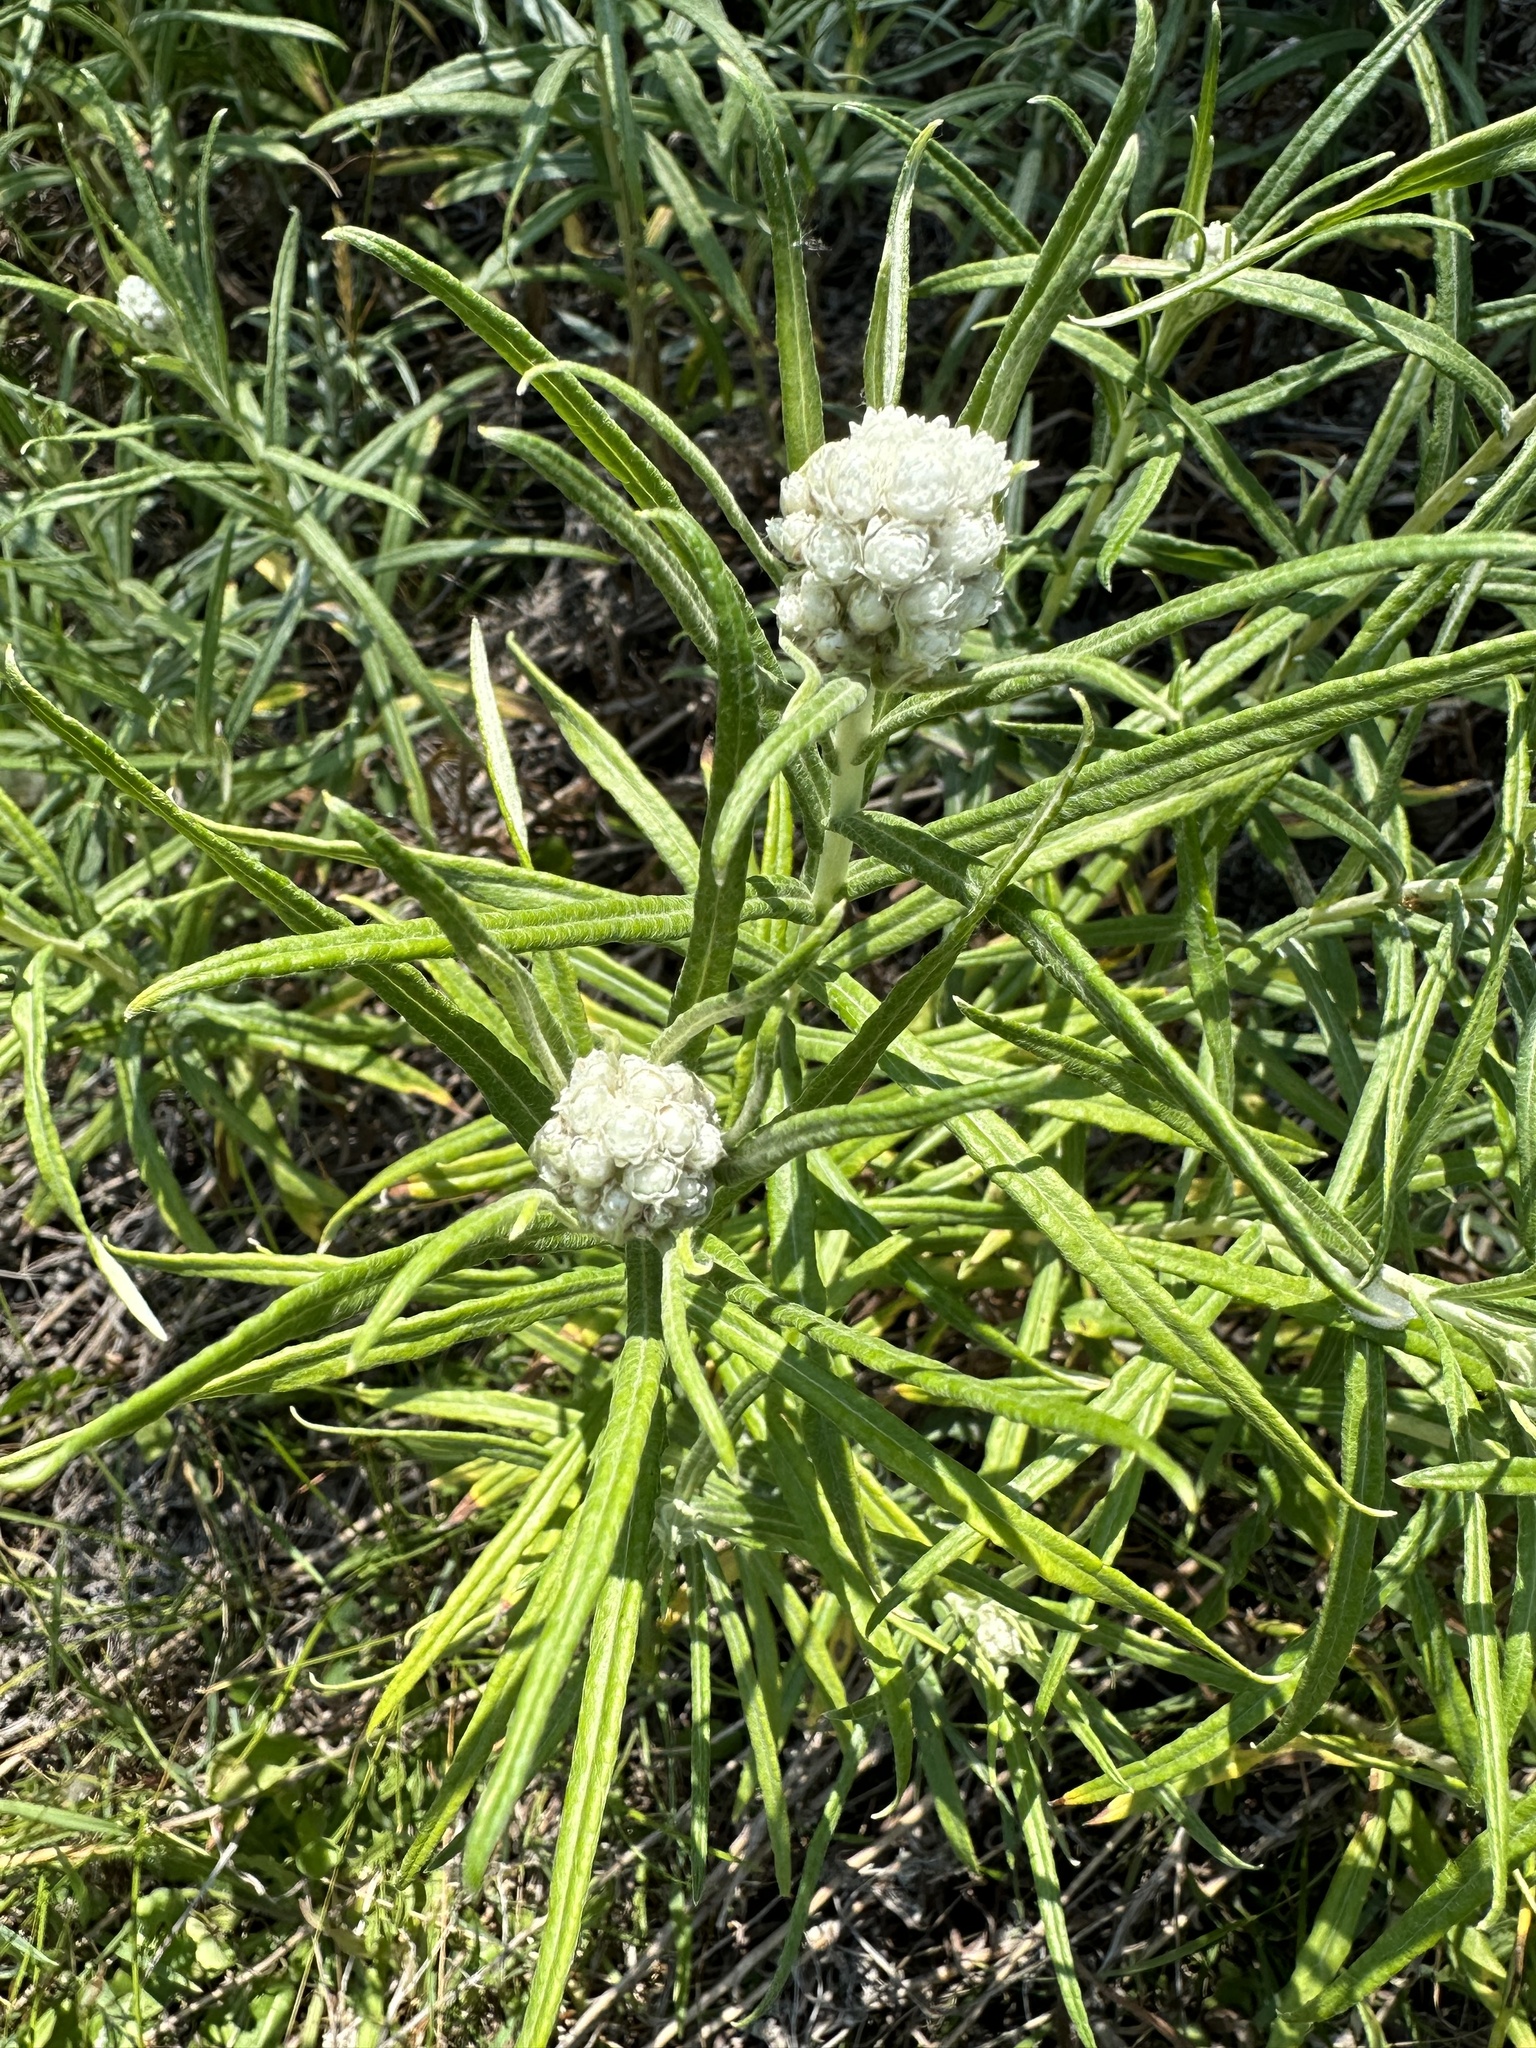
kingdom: Plantae
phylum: Tracheophyta
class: Magnoliopsida
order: Asterales
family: Asteraceae
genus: Anaphalis
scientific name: Anaphalis margaritacea
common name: Pearly everlasting
